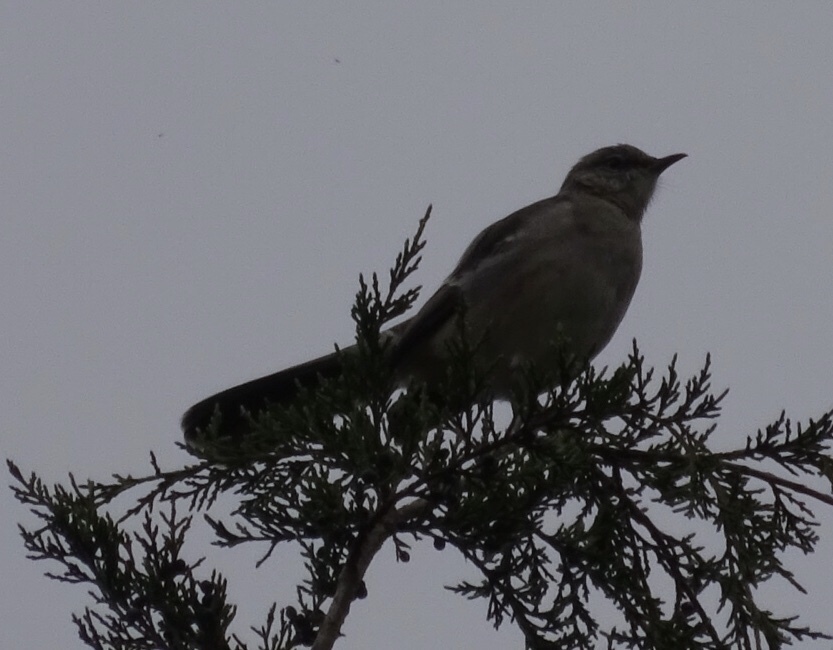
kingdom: Animalia
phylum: Chordata
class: Aves
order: Passeriformes
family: Mimidae
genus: Mimus
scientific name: Mimus polyglottos
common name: Northern mockingbird
